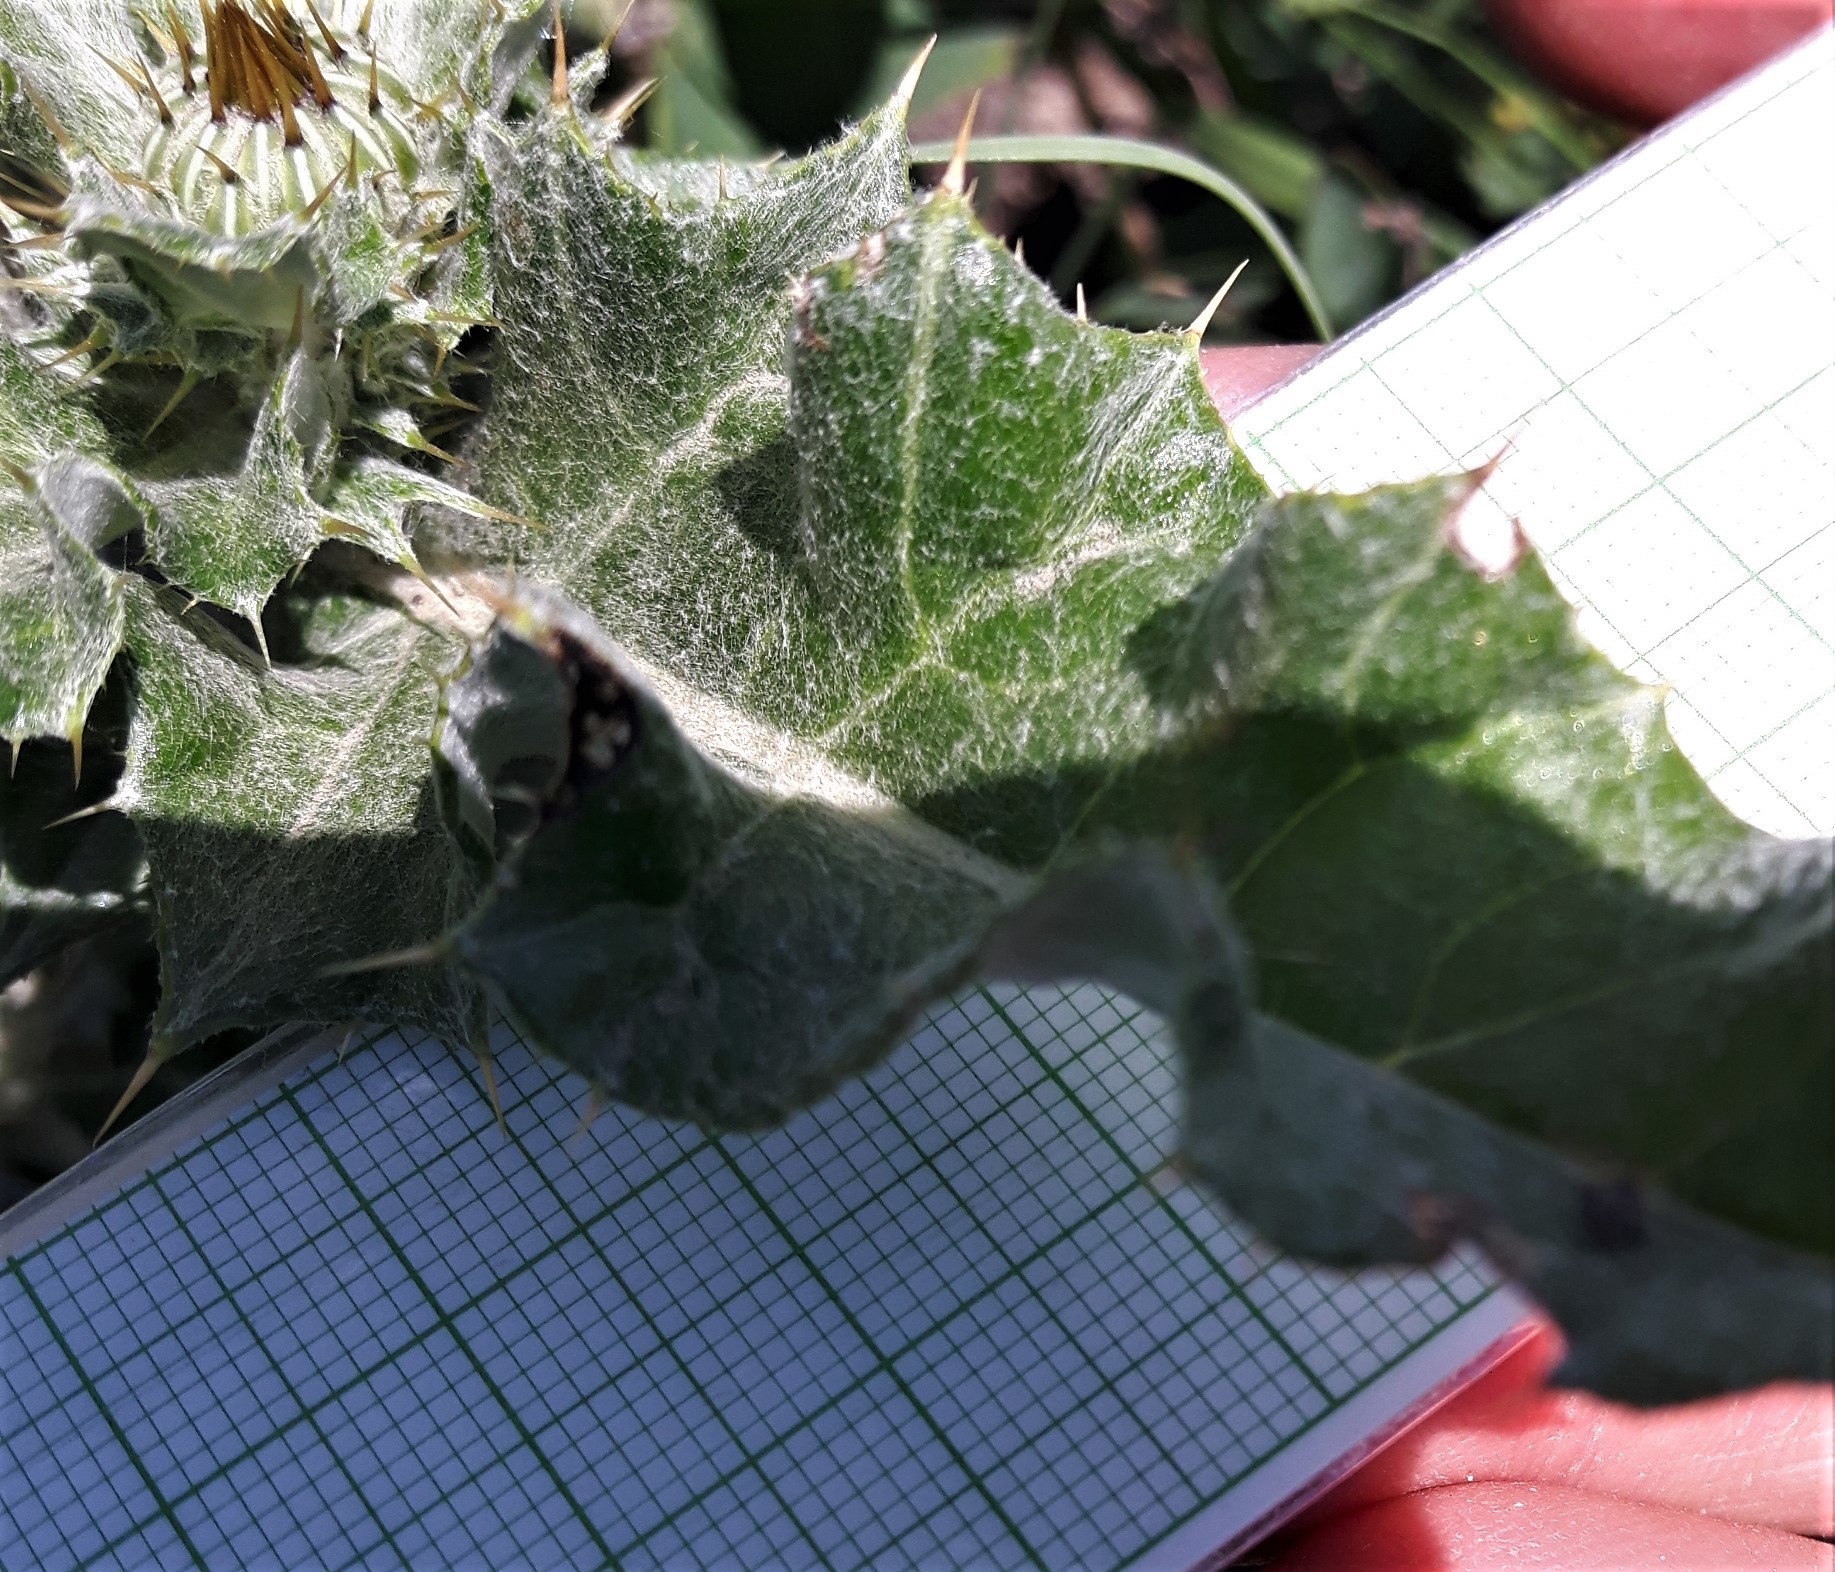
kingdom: Plantae
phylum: Tracheophyta
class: Magnoliopsida
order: Asterales
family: Asteraceae
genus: Cirsium
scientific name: Cirsium undulatum
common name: Pasture thistle
